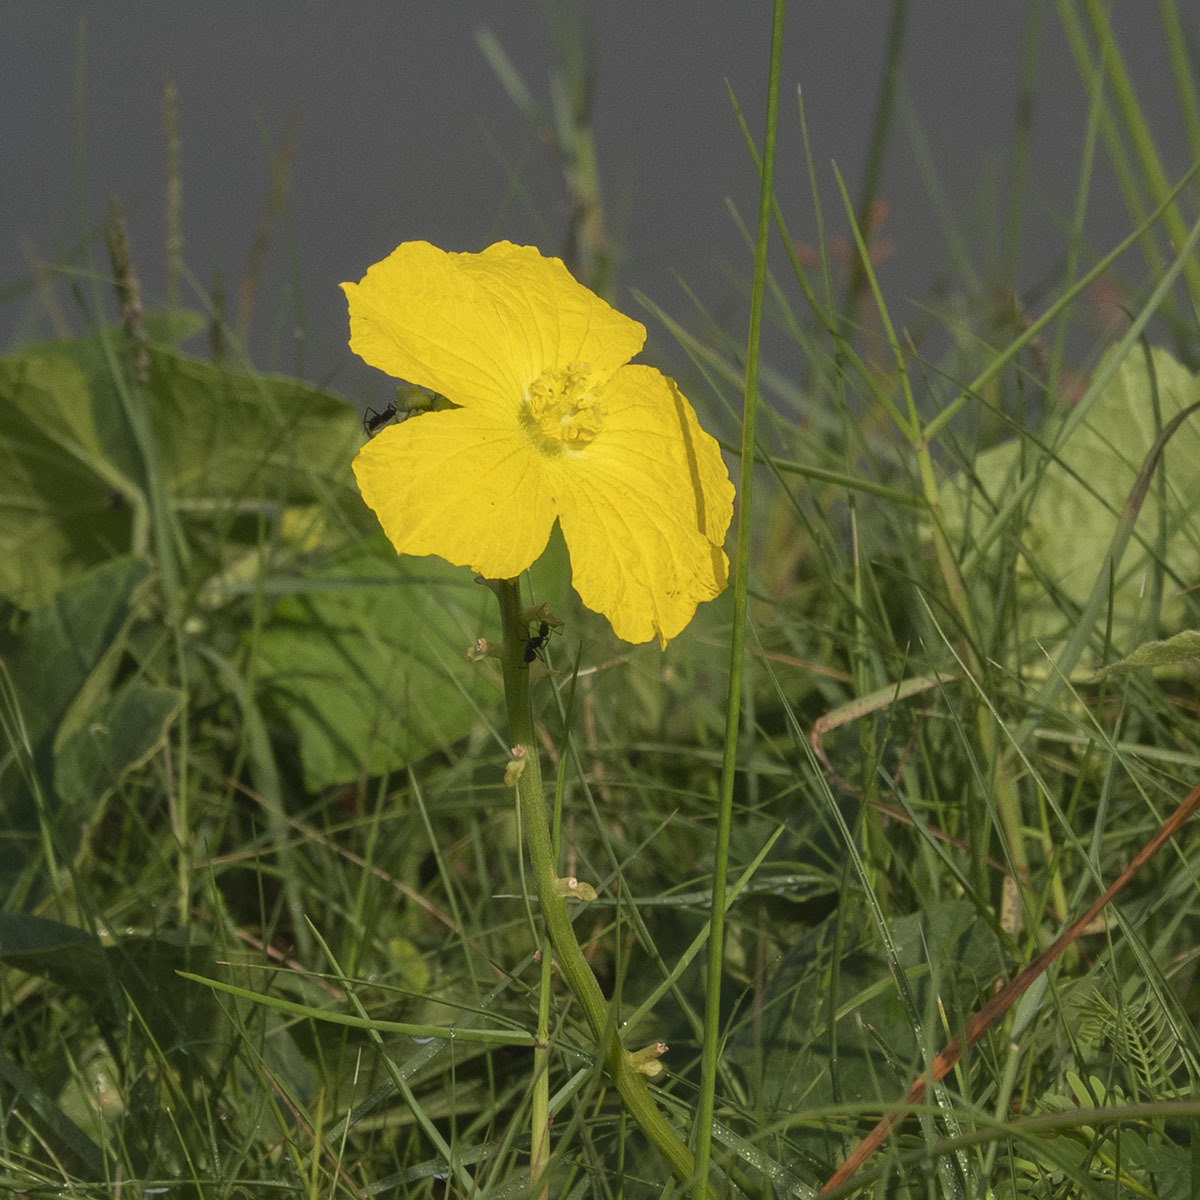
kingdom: Plantae
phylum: Tracheophyta
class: Magnoliopsida
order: Cucurbitales
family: Cucurbitaceae
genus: Luffa
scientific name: Luffa aegyptiaca
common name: Sponge gourd
